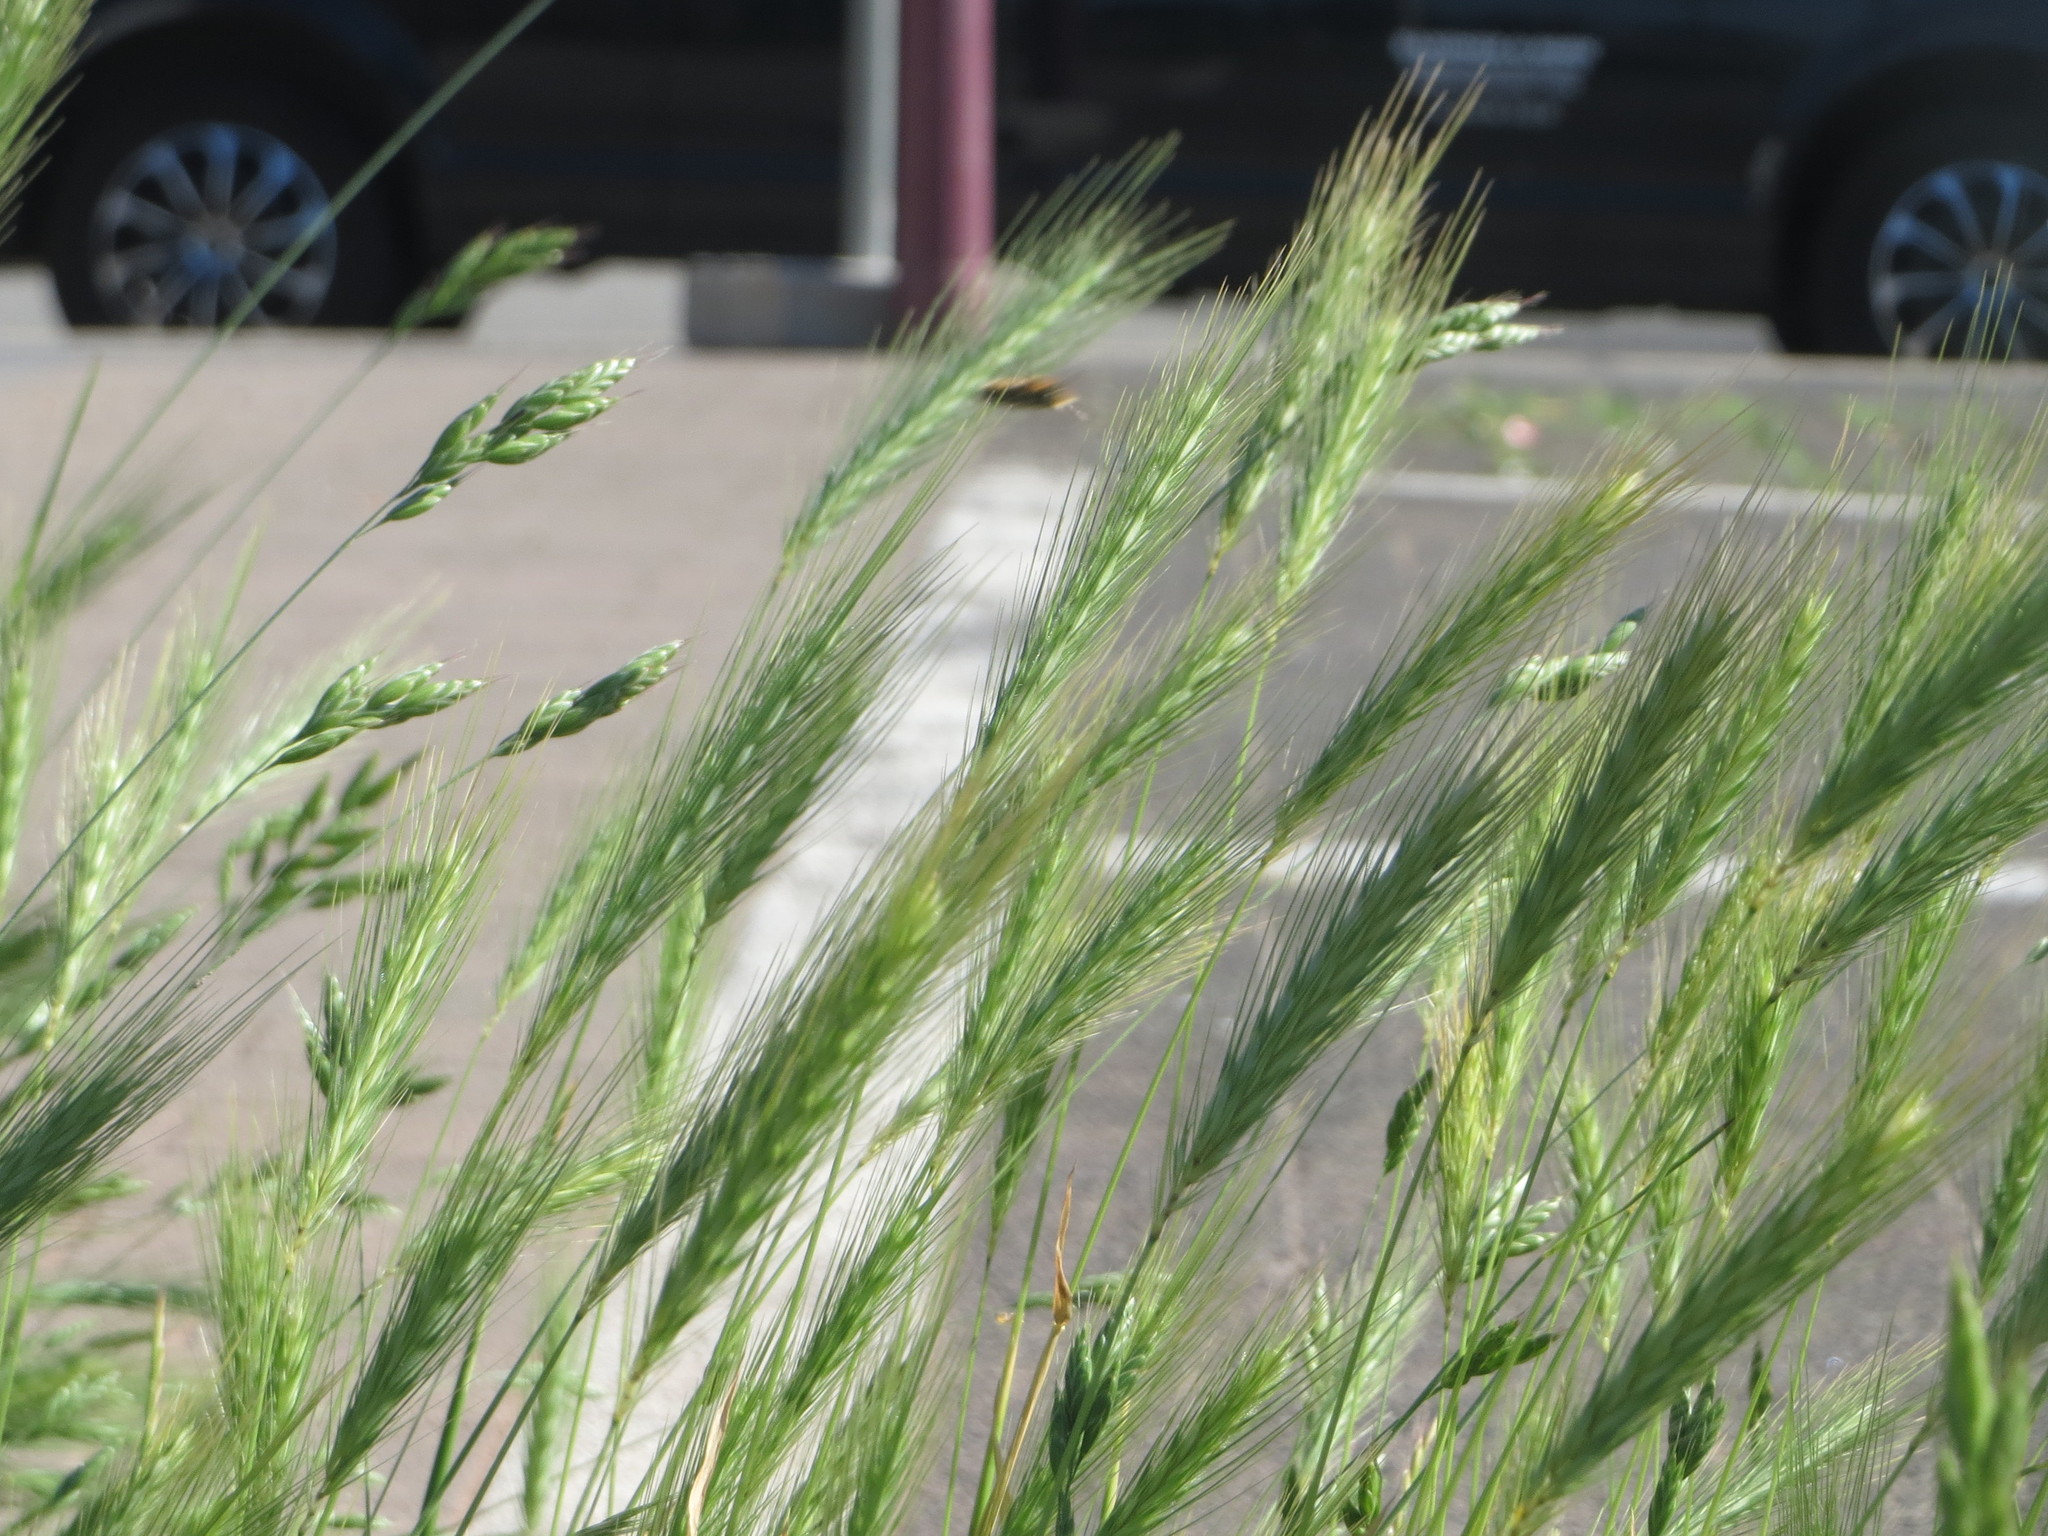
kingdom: Plantae
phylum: Tracheophyta
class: Liliopsida
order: Poales
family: Poaceae
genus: Hordeum
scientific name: Hordeum murinum
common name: Wall barley
